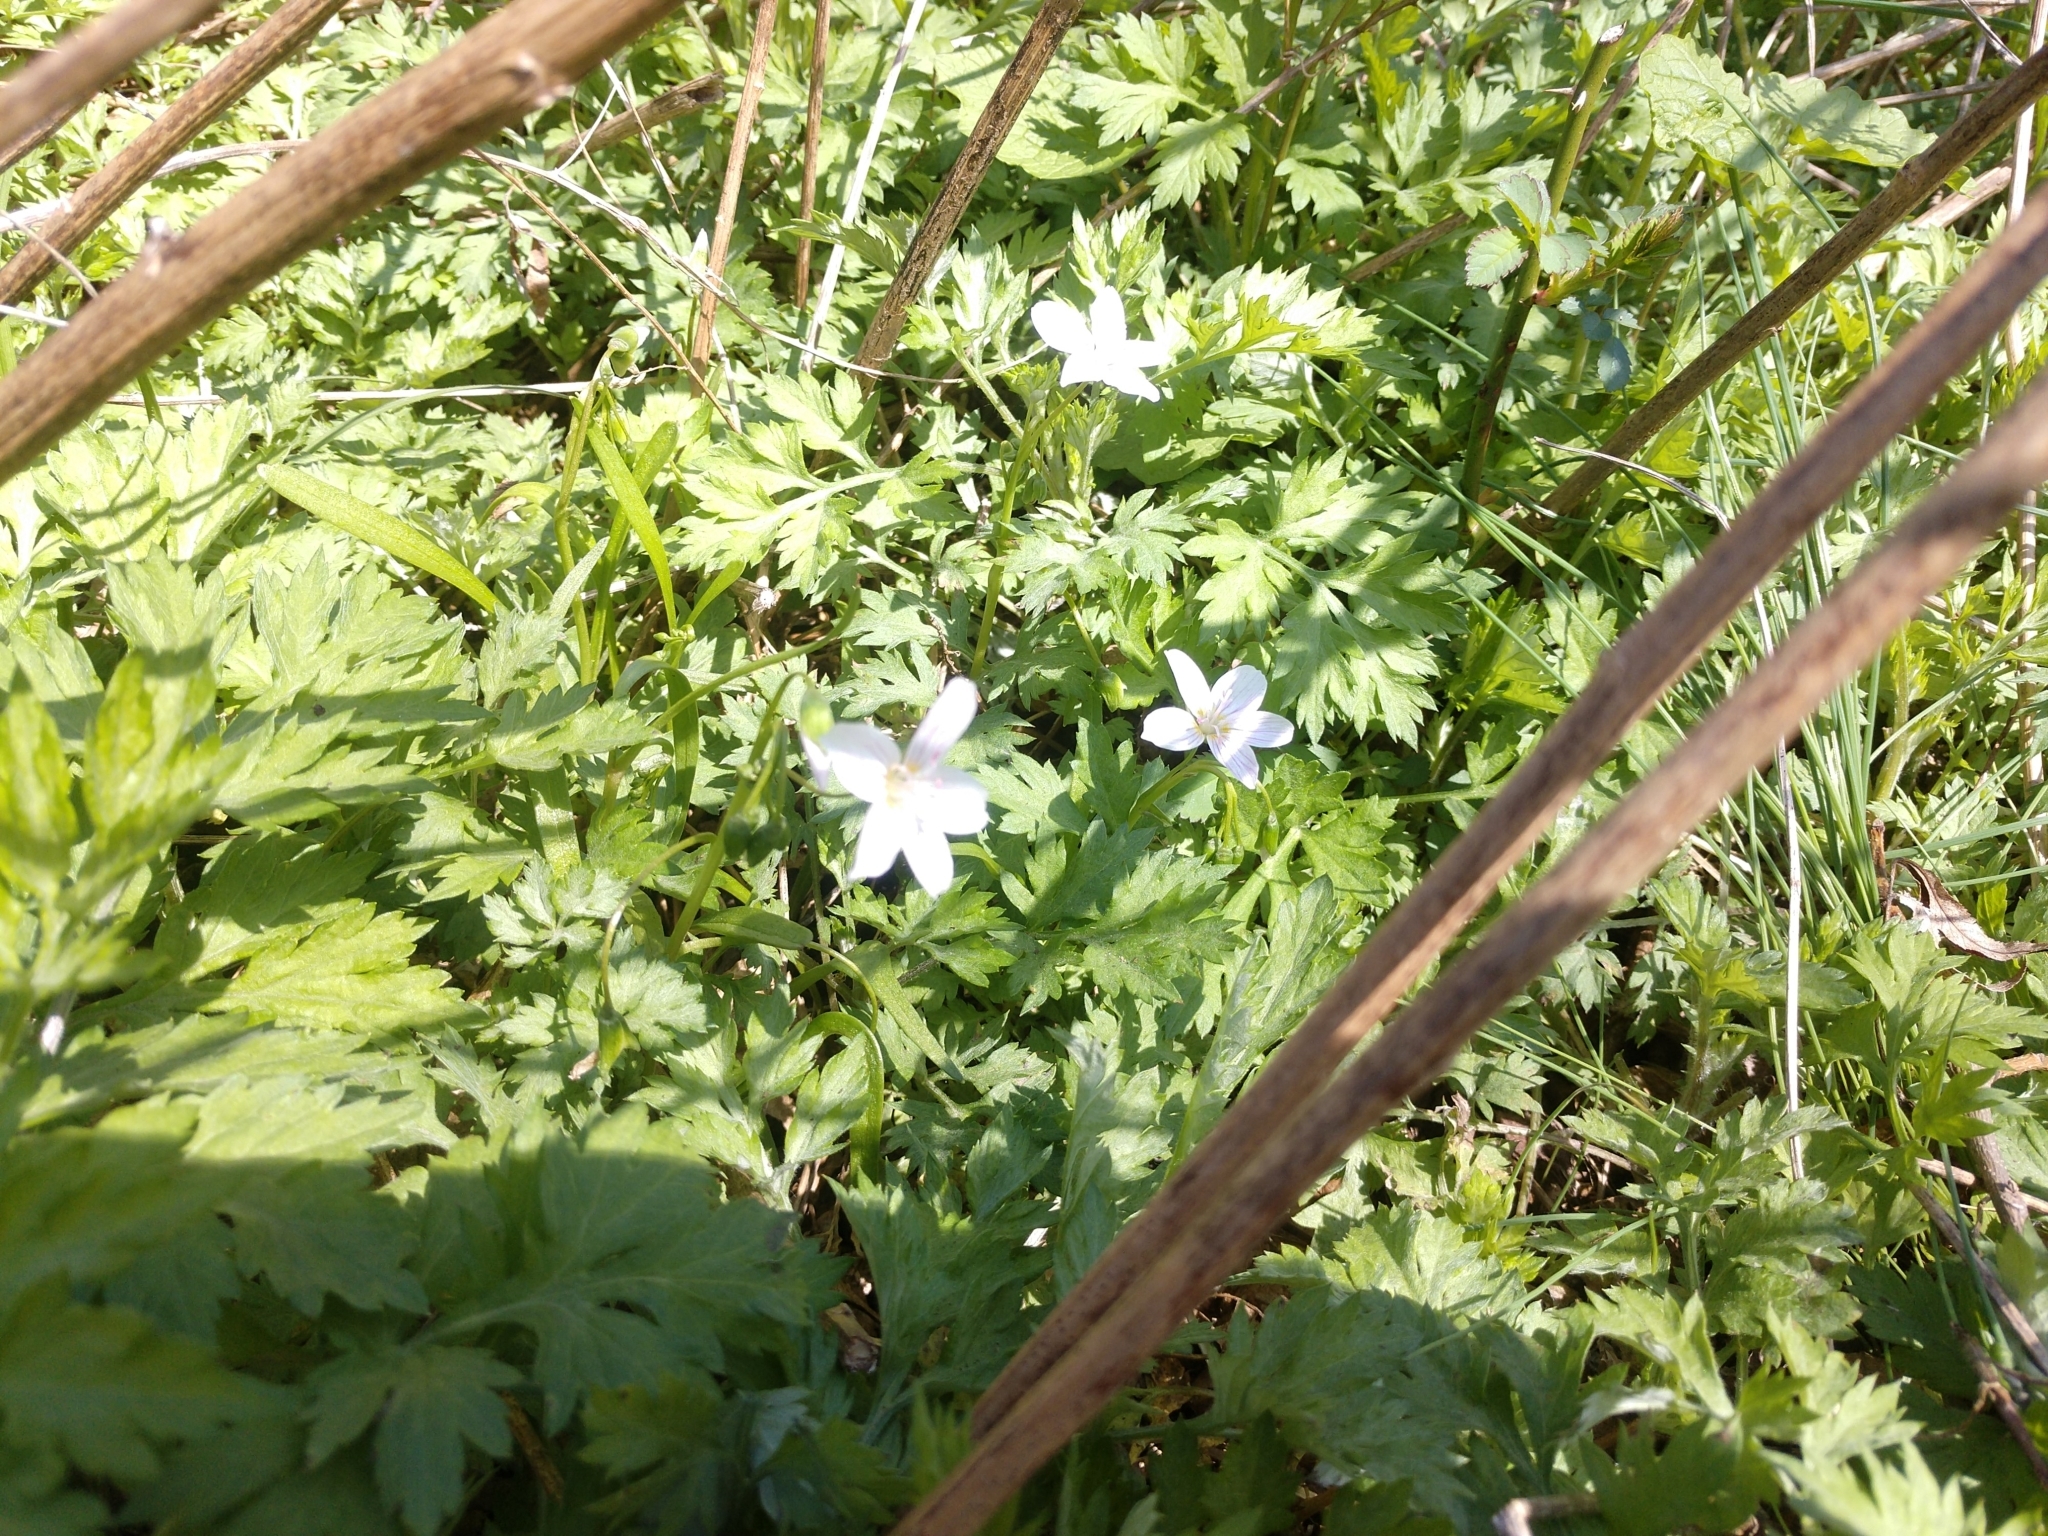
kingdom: Plantae
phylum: Tracheophyta
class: Magnoliopsida
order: Caryophyllales
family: Montiaceae
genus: Claytonia
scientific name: Claytonia virginica
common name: Virginia springbeauty
